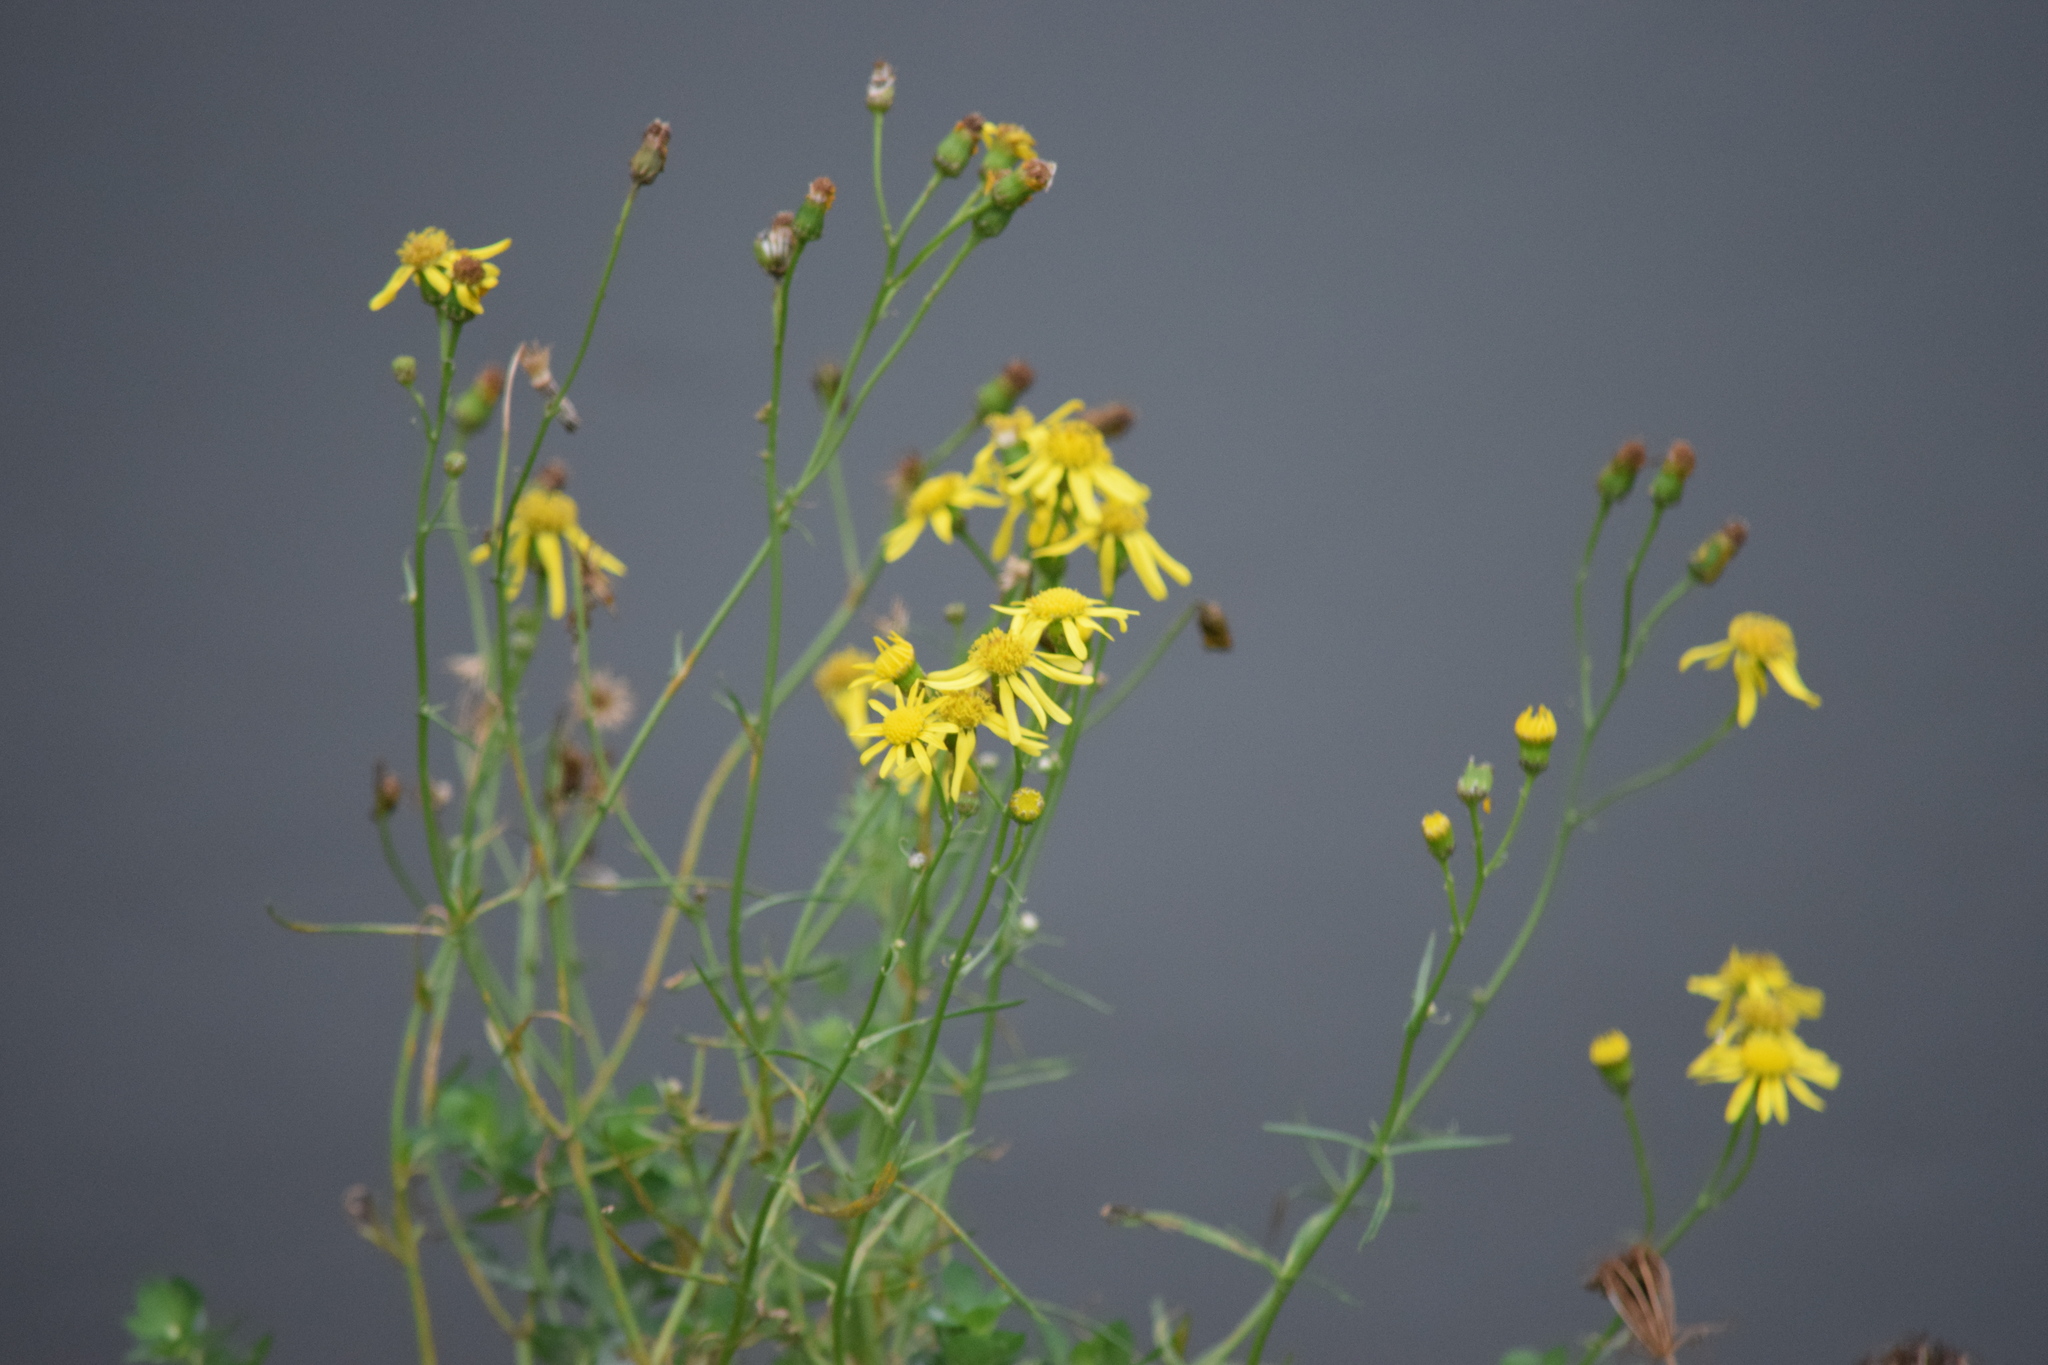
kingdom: Plantae
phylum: Tracheophyta
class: Magnoliopsida
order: Asterales
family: Asteraceae
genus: Senecio
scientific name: Senecio inaequidens
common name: Narrow-leaved ragwort
